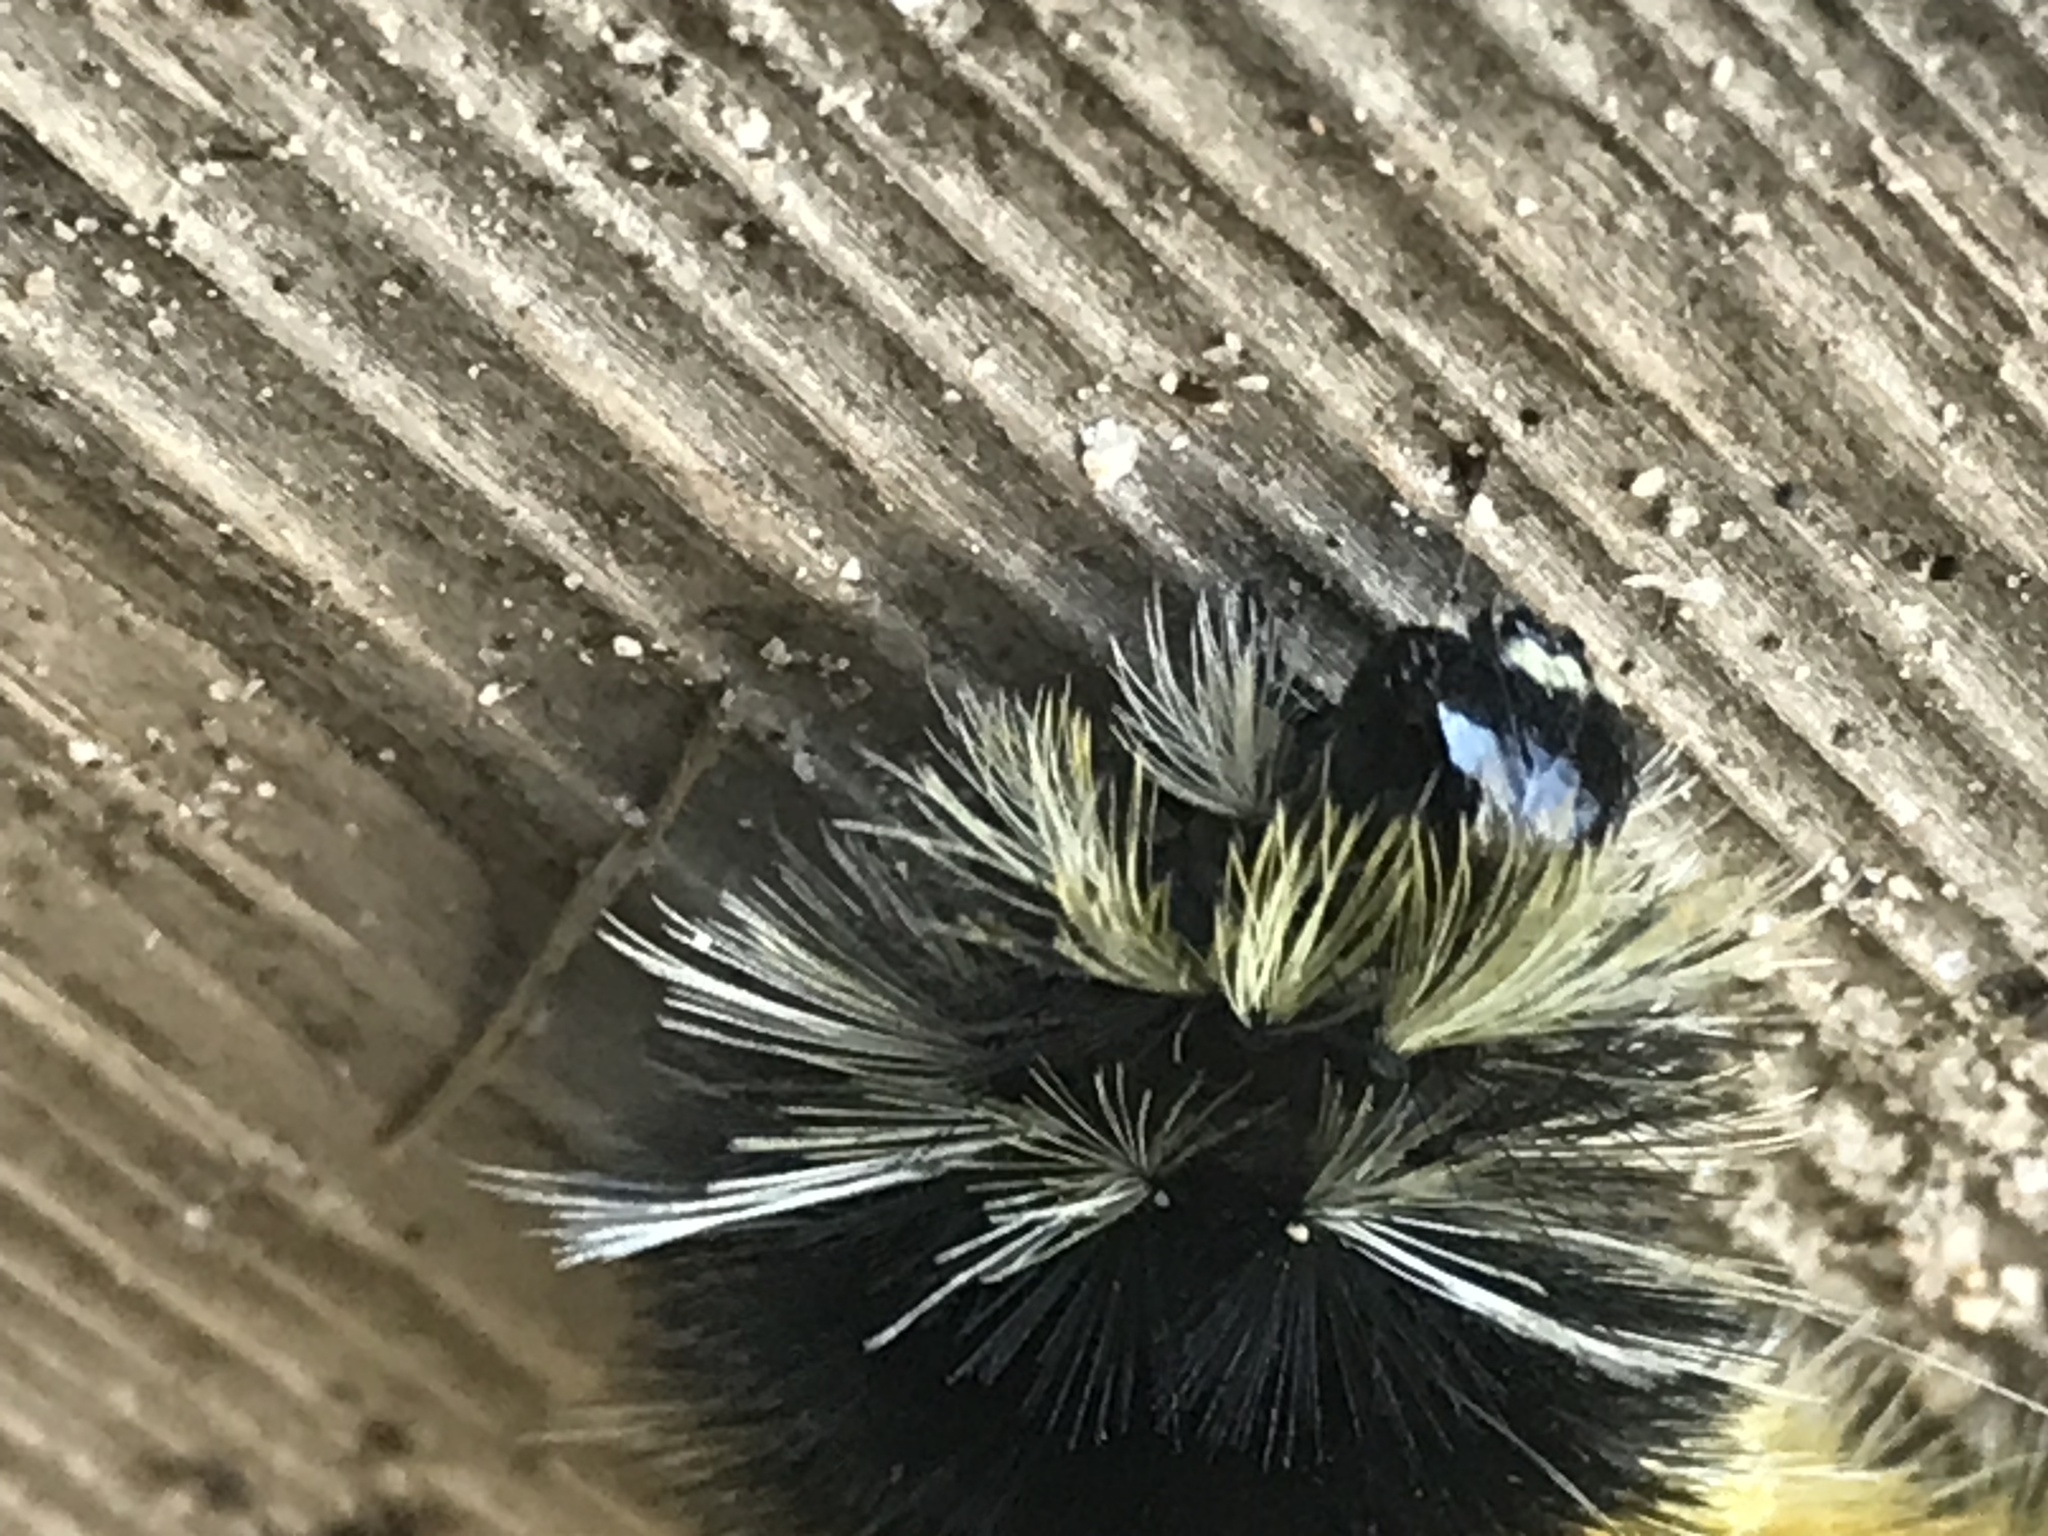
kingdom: Animalia
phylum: Arthropoda
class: Insecta
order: Lepidoptera
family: Erebidae
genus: Lophocampa
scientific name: Lophocampa maculata
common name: Spotted tussock moth
